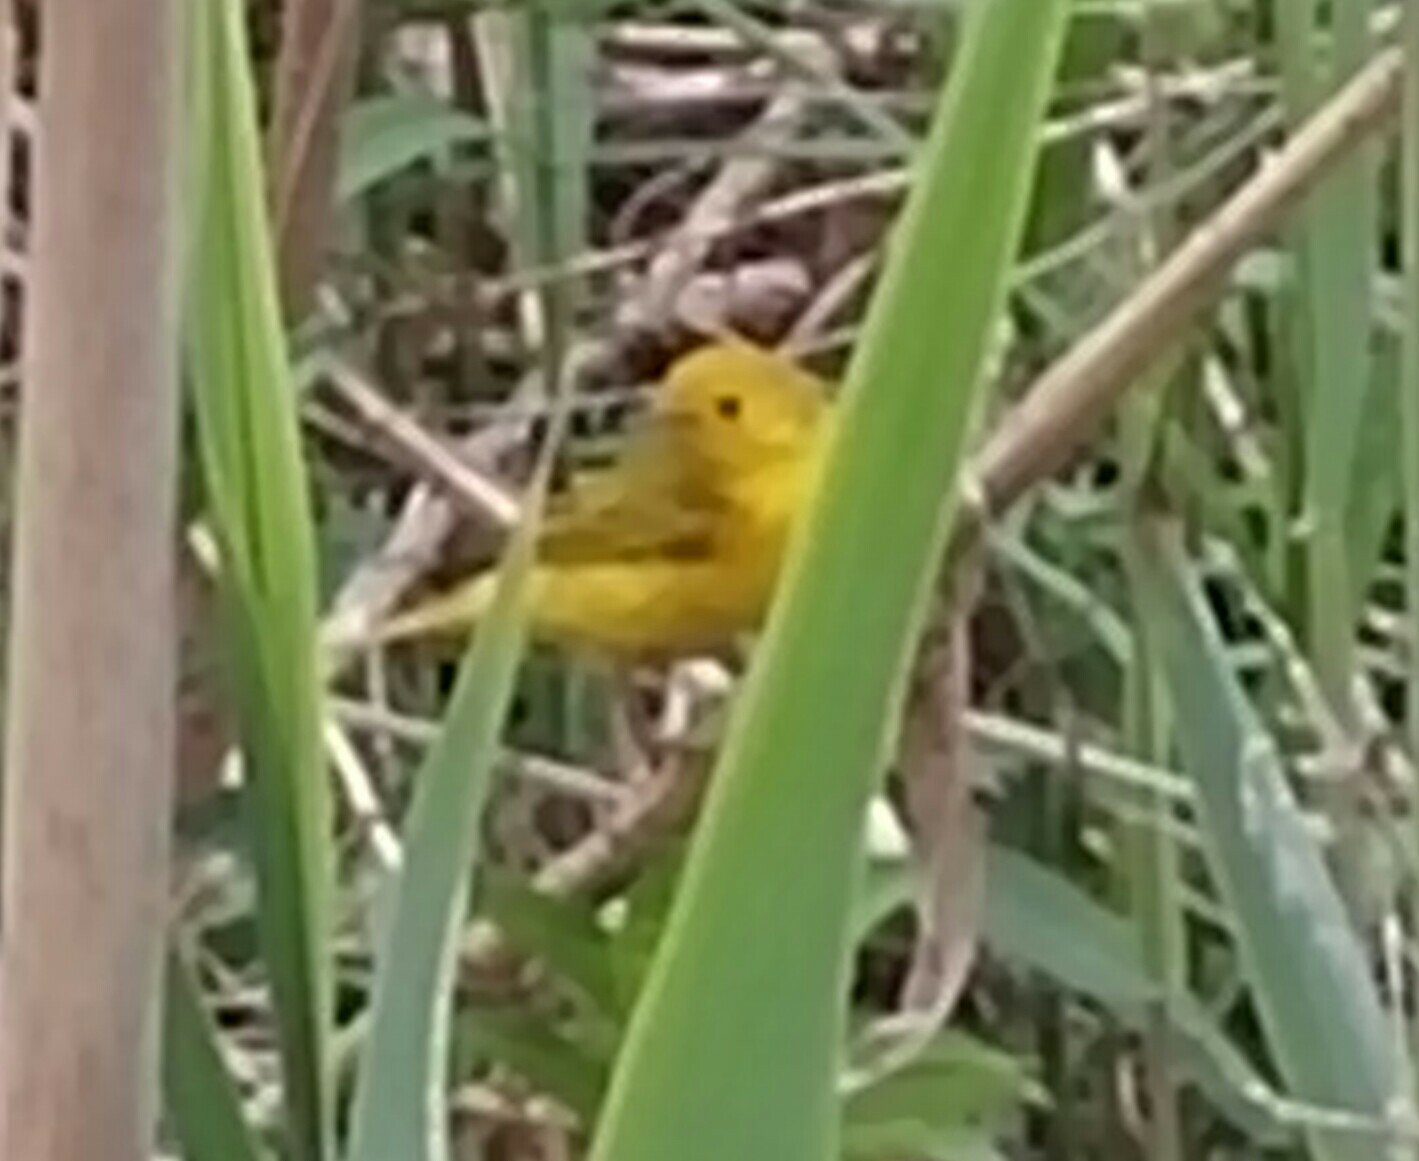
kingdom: Animalia
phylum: Chordata
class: Aves
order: Passeriformes
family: Parulidae
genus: Setophaga
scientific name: Setophaga petechia
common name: Yellow warbler
